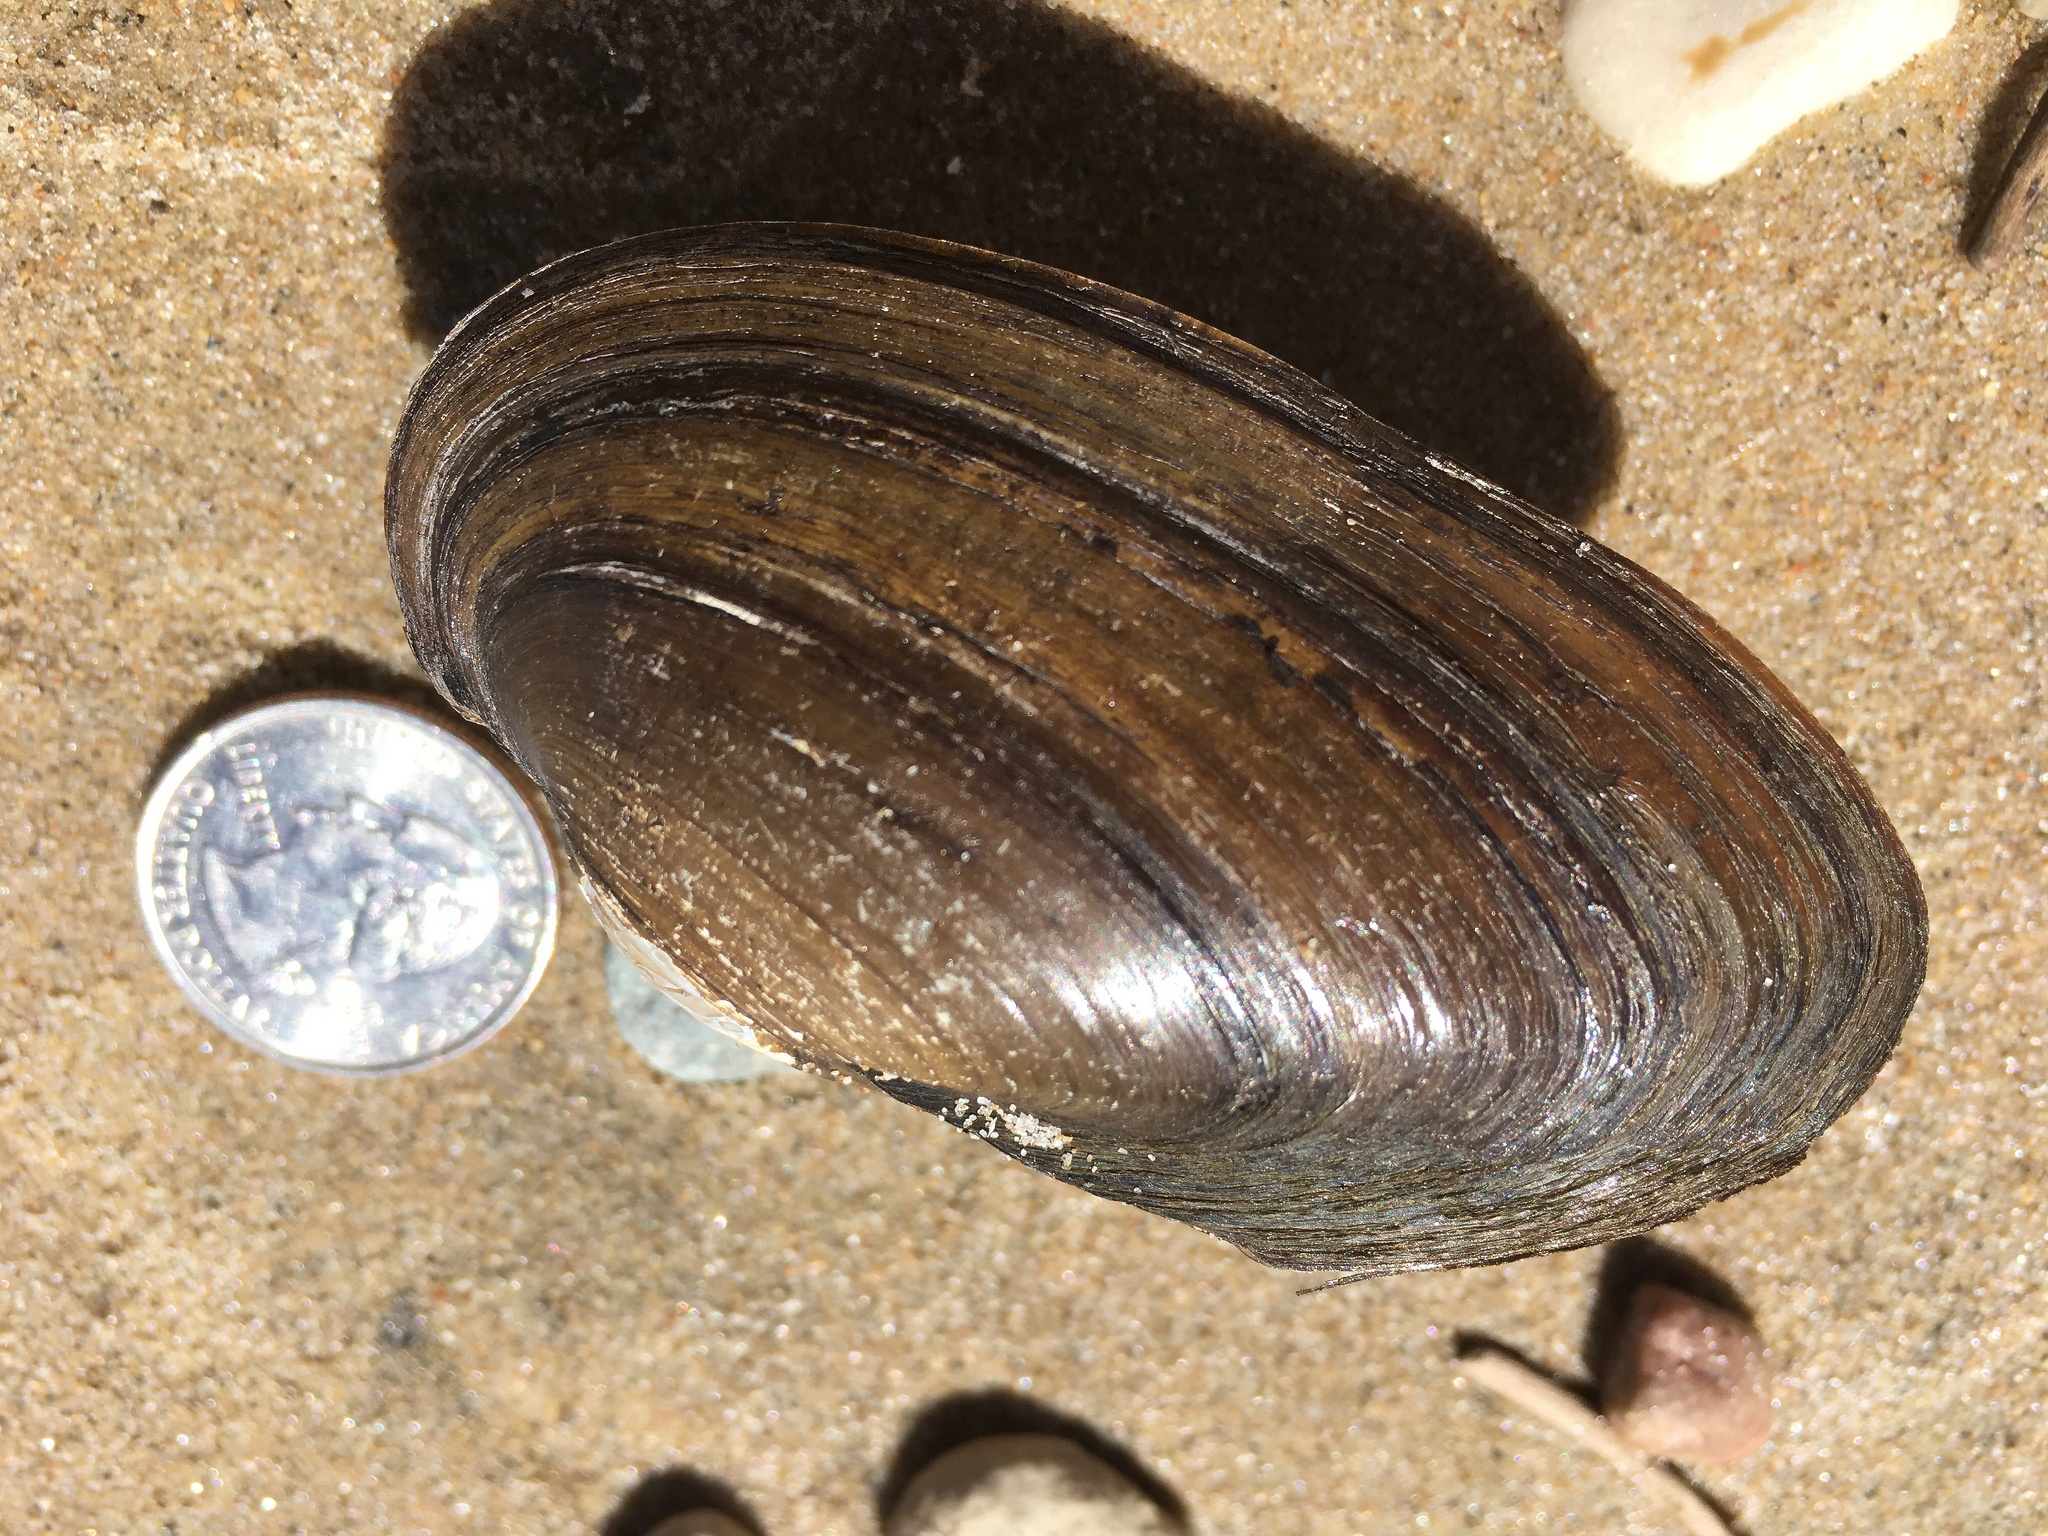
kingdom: Animalia
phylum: Mollusca
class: Bivalvia
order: Unionida
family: Unionidae
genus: Pyganodon
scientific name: Pyganodon grandis
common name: Giant floater
